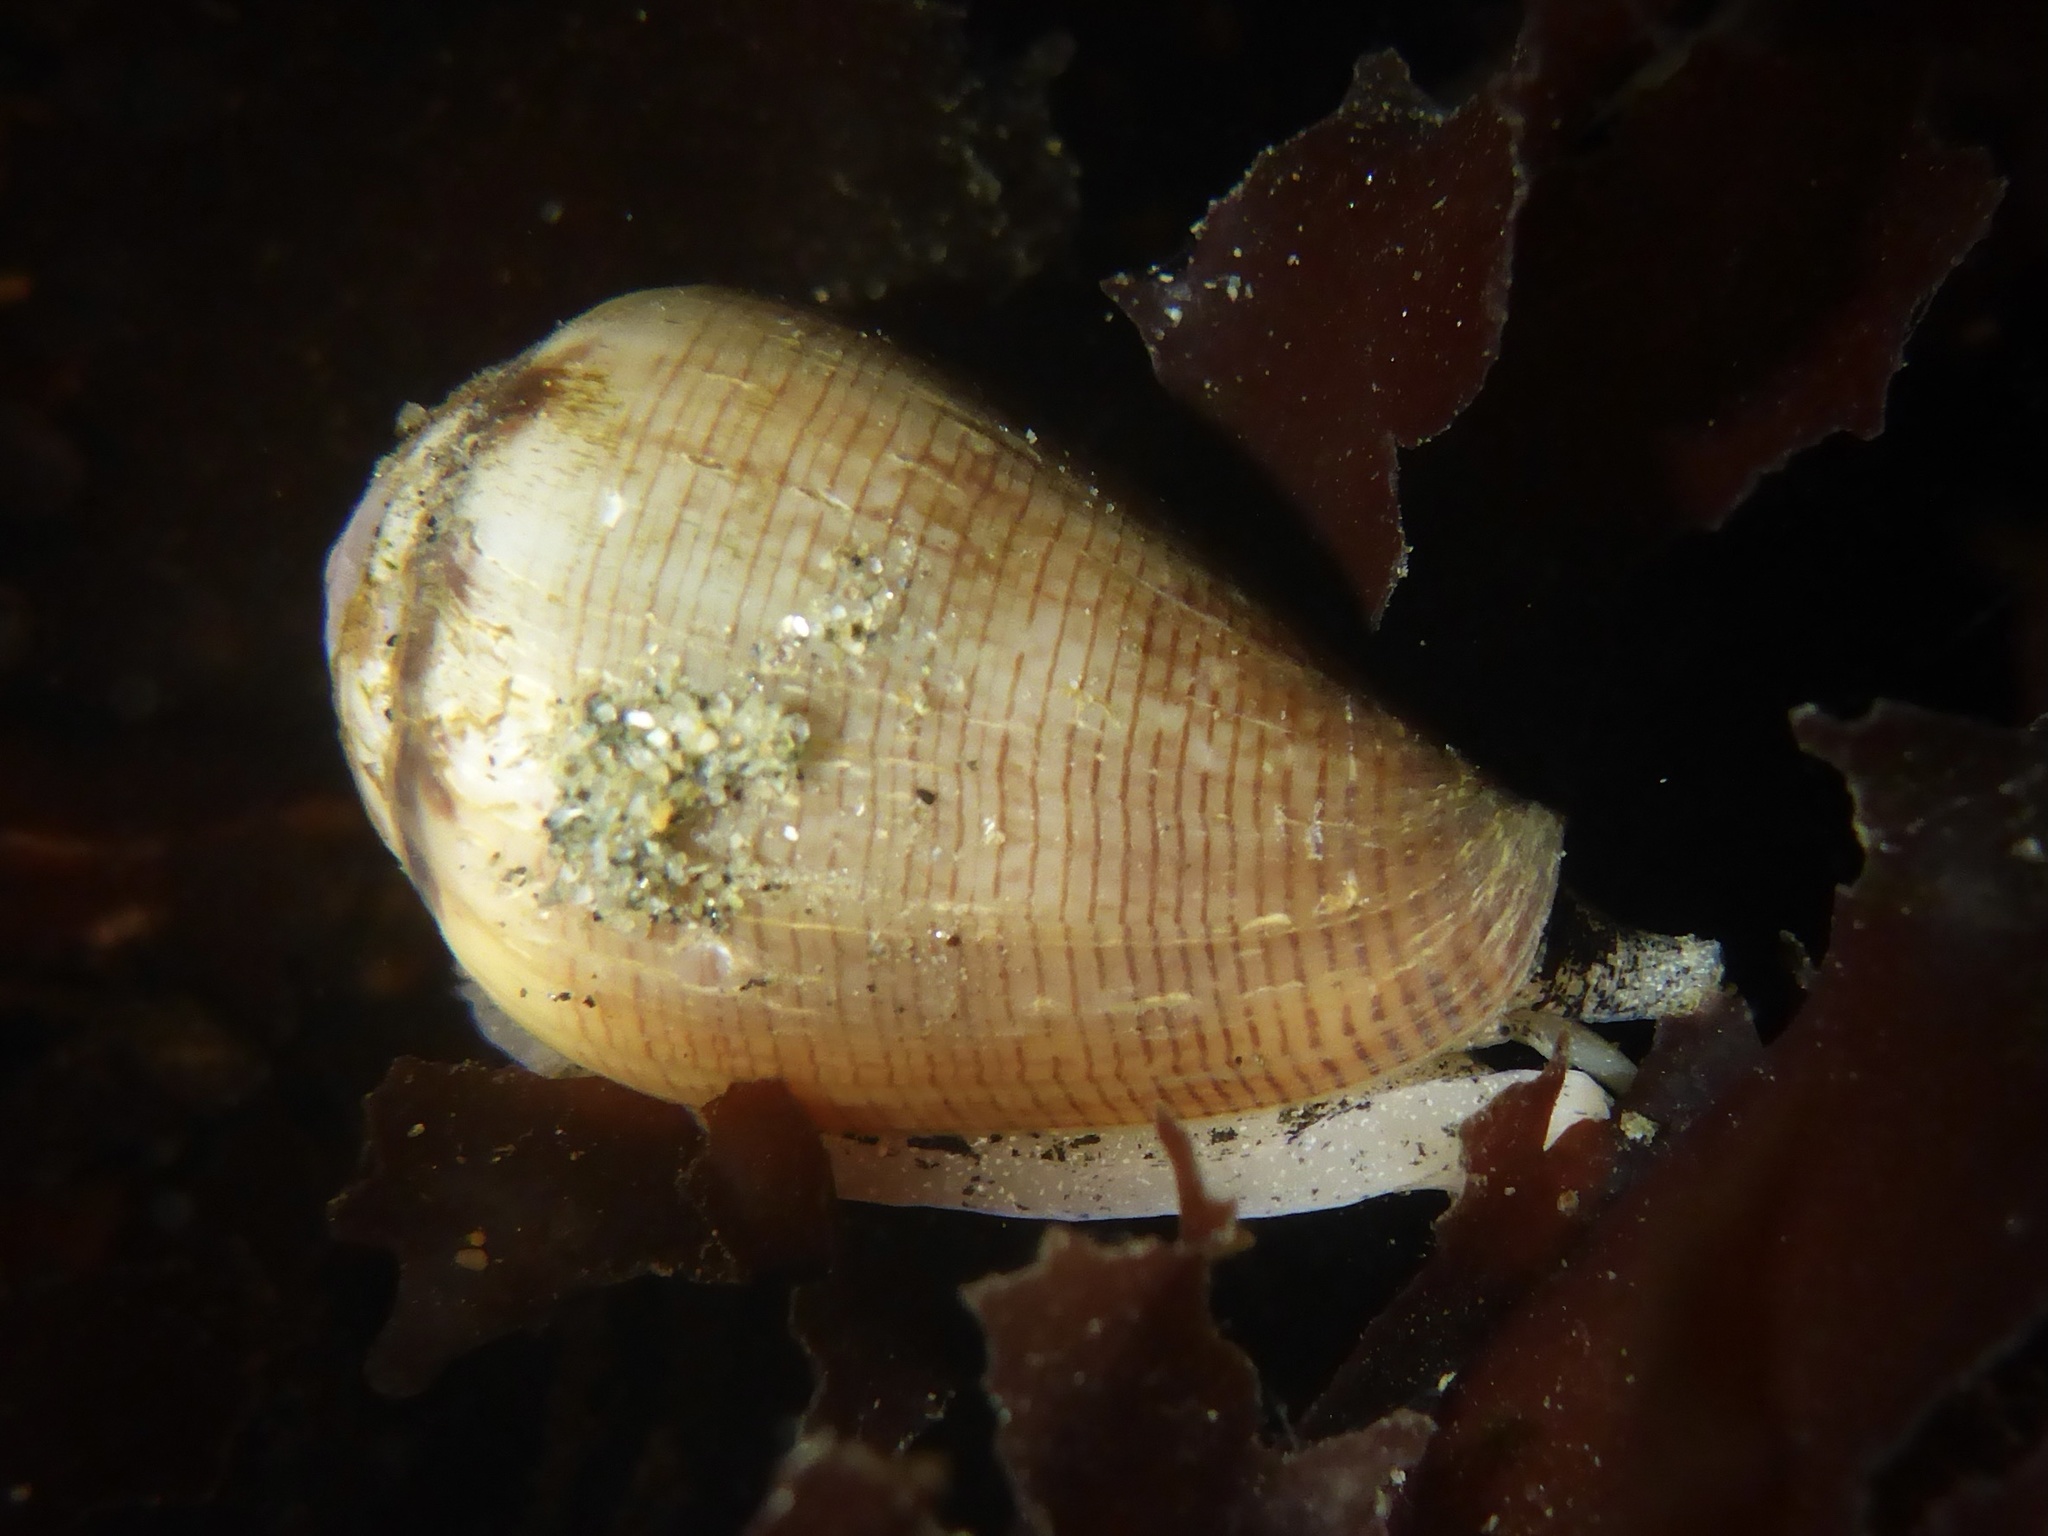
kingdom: Animalia
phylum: Mollusca
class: Gastropoda
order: Neogastropoda
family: Conidae
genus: Californiconus
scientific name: Californiconus californicus
